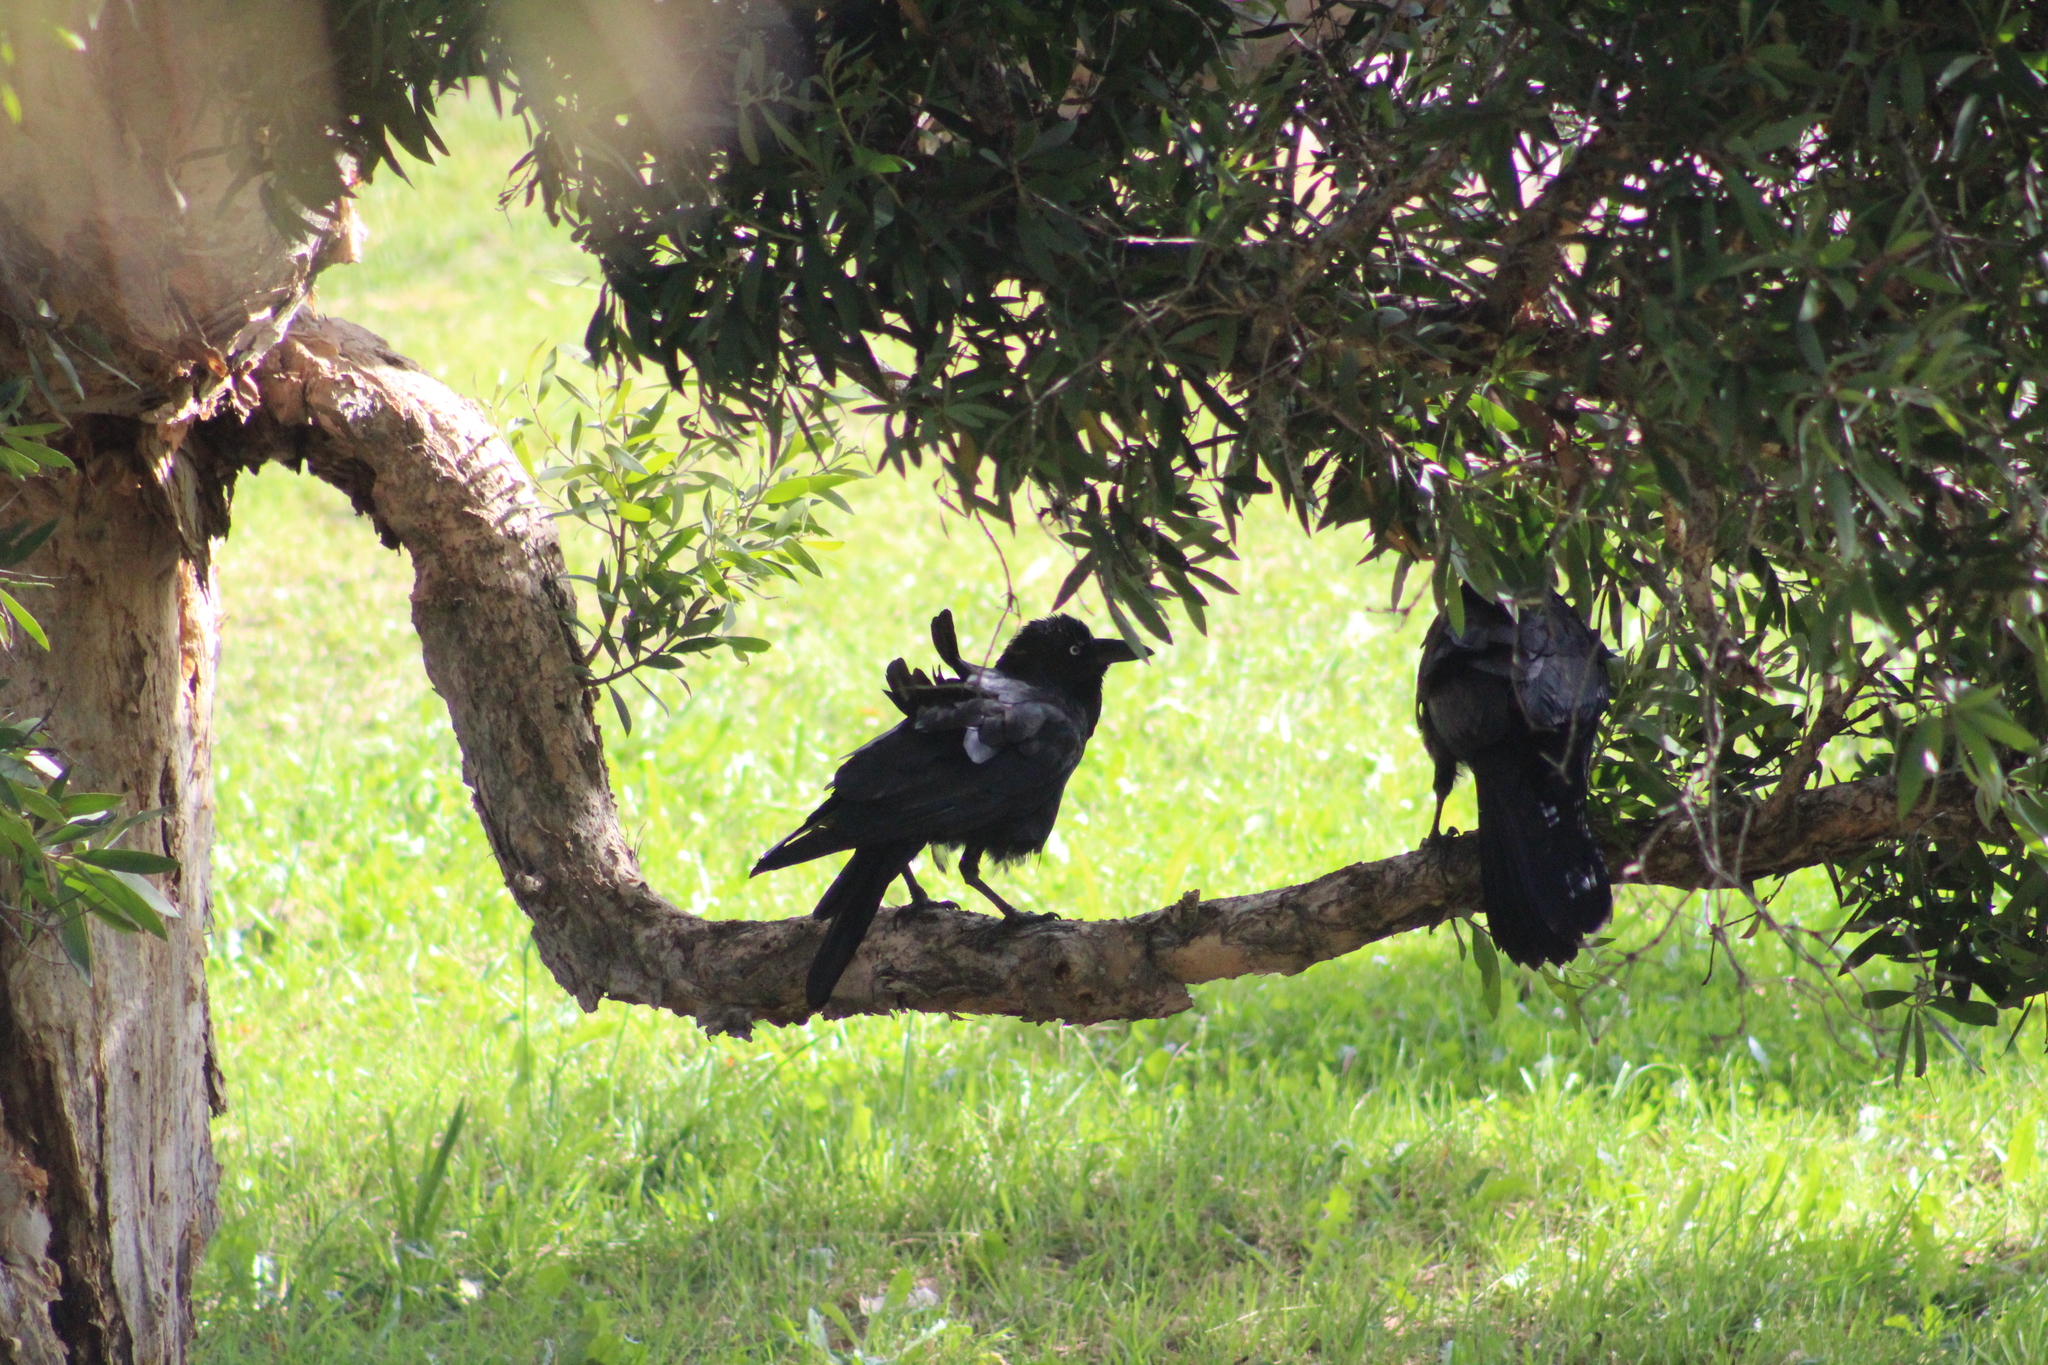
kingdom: Animalia
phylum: Chordata
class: Aves
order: Passeriformes
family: Corvidae
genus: Corvus
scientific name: Corvus coronoides
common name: Australian raven
